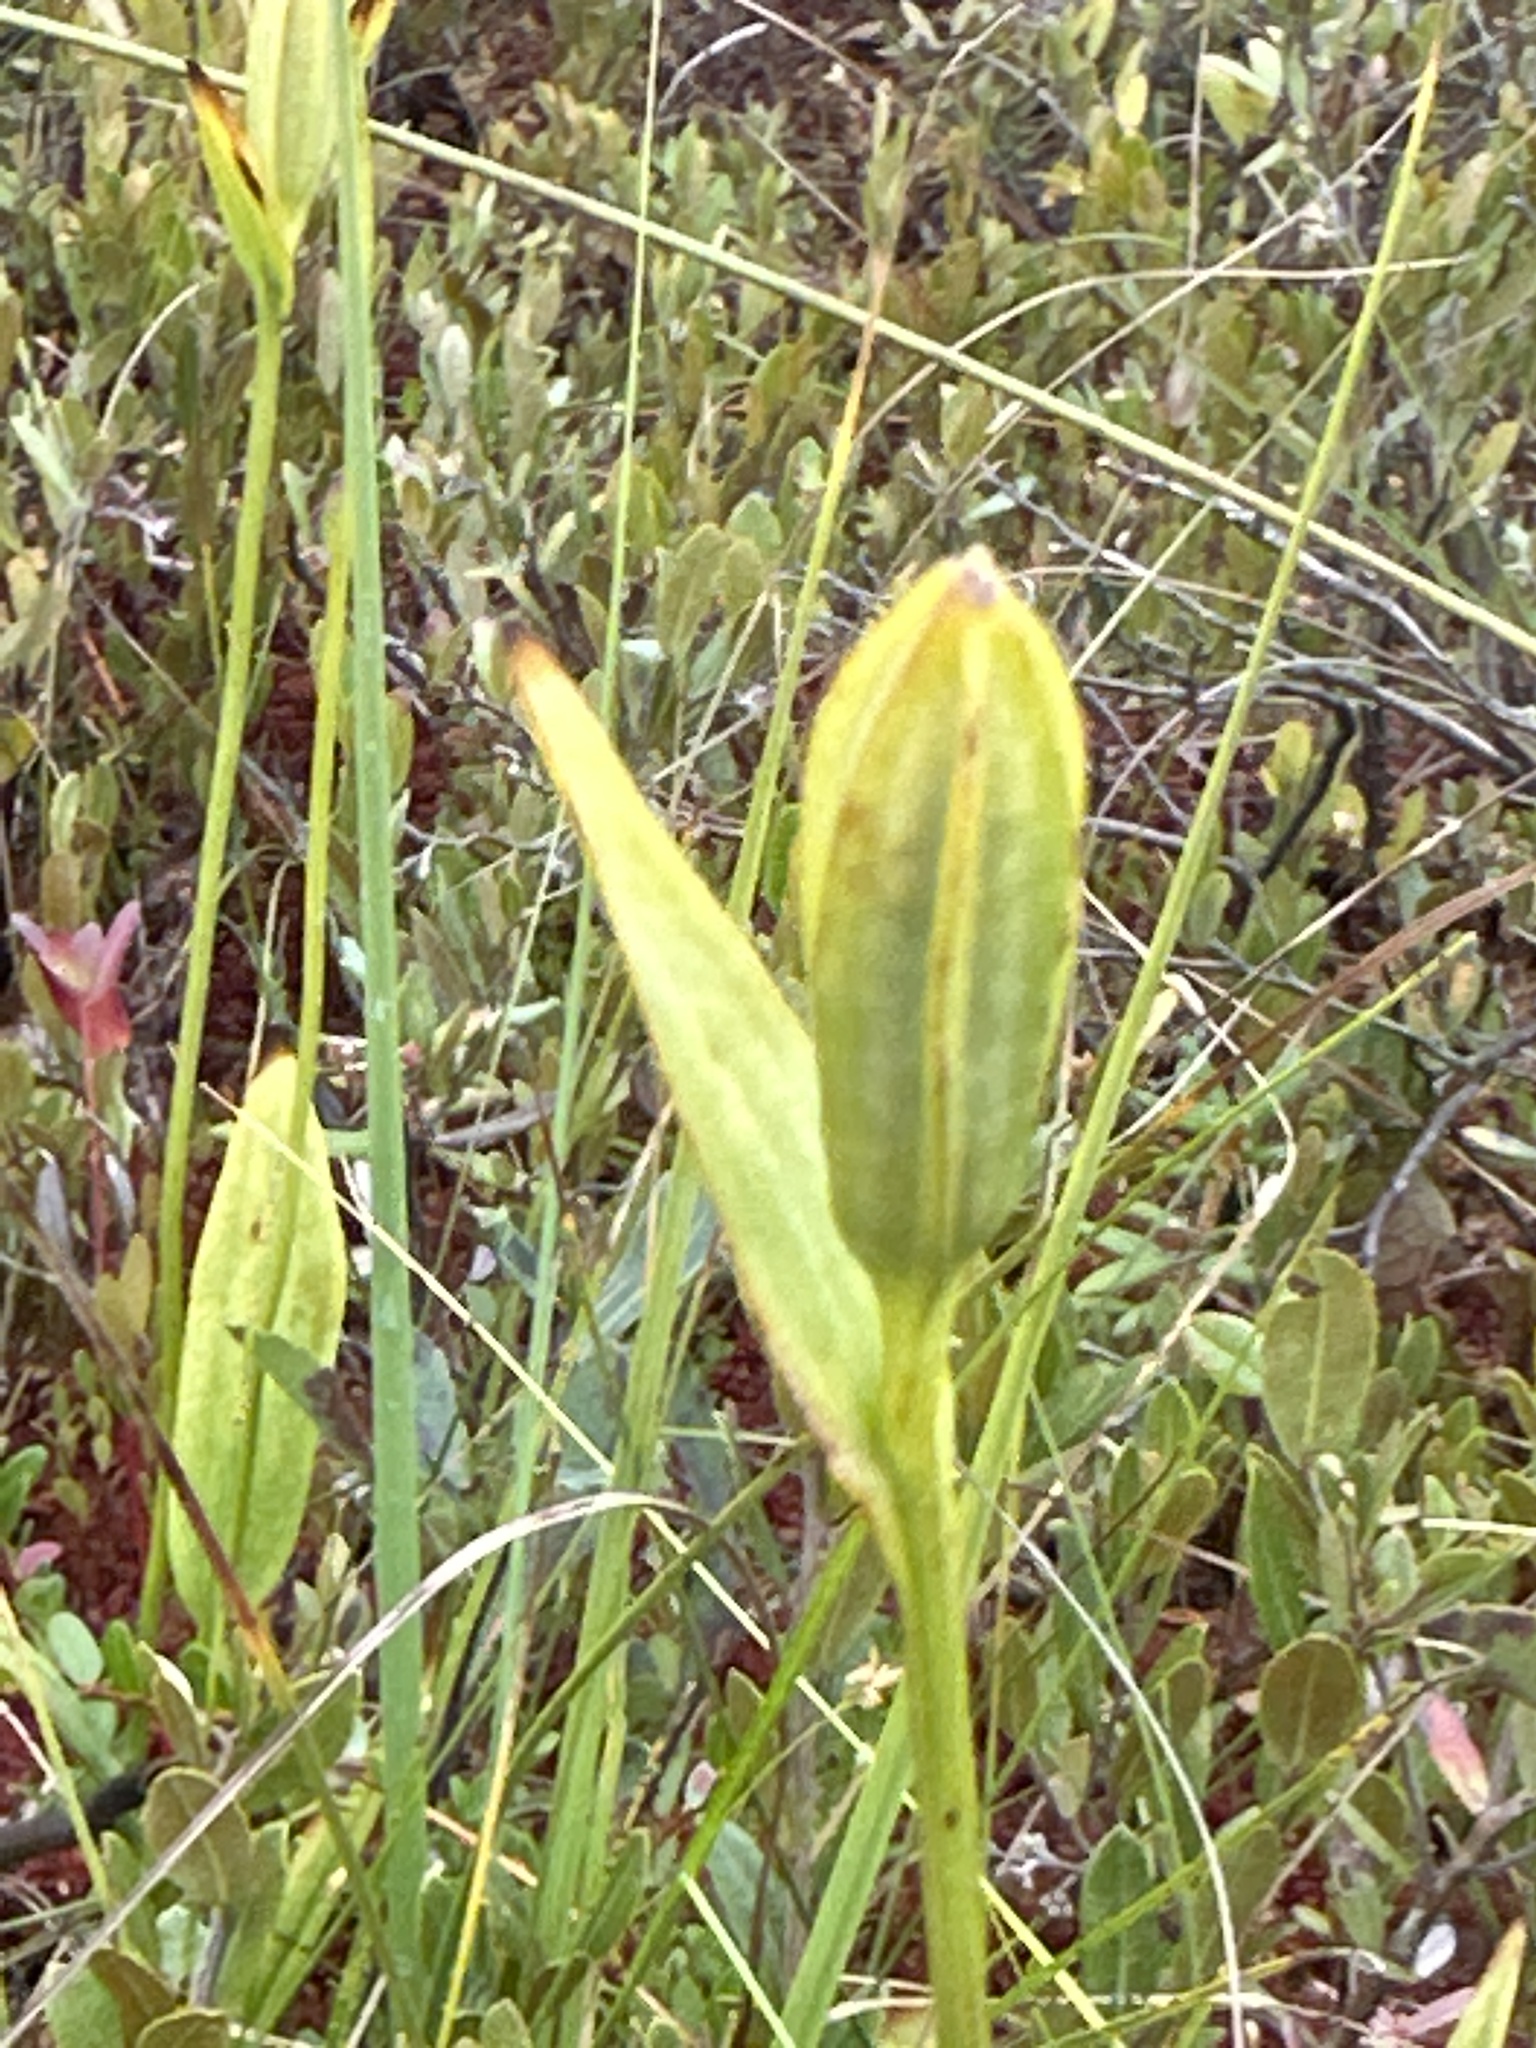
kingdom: Plantae
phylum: Tracheophyta
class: Liliopsida
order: Asparagales
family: Orchidaceae
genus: Pogonia
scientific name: Pogonia ophioglossoides
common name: Rose pogonia
